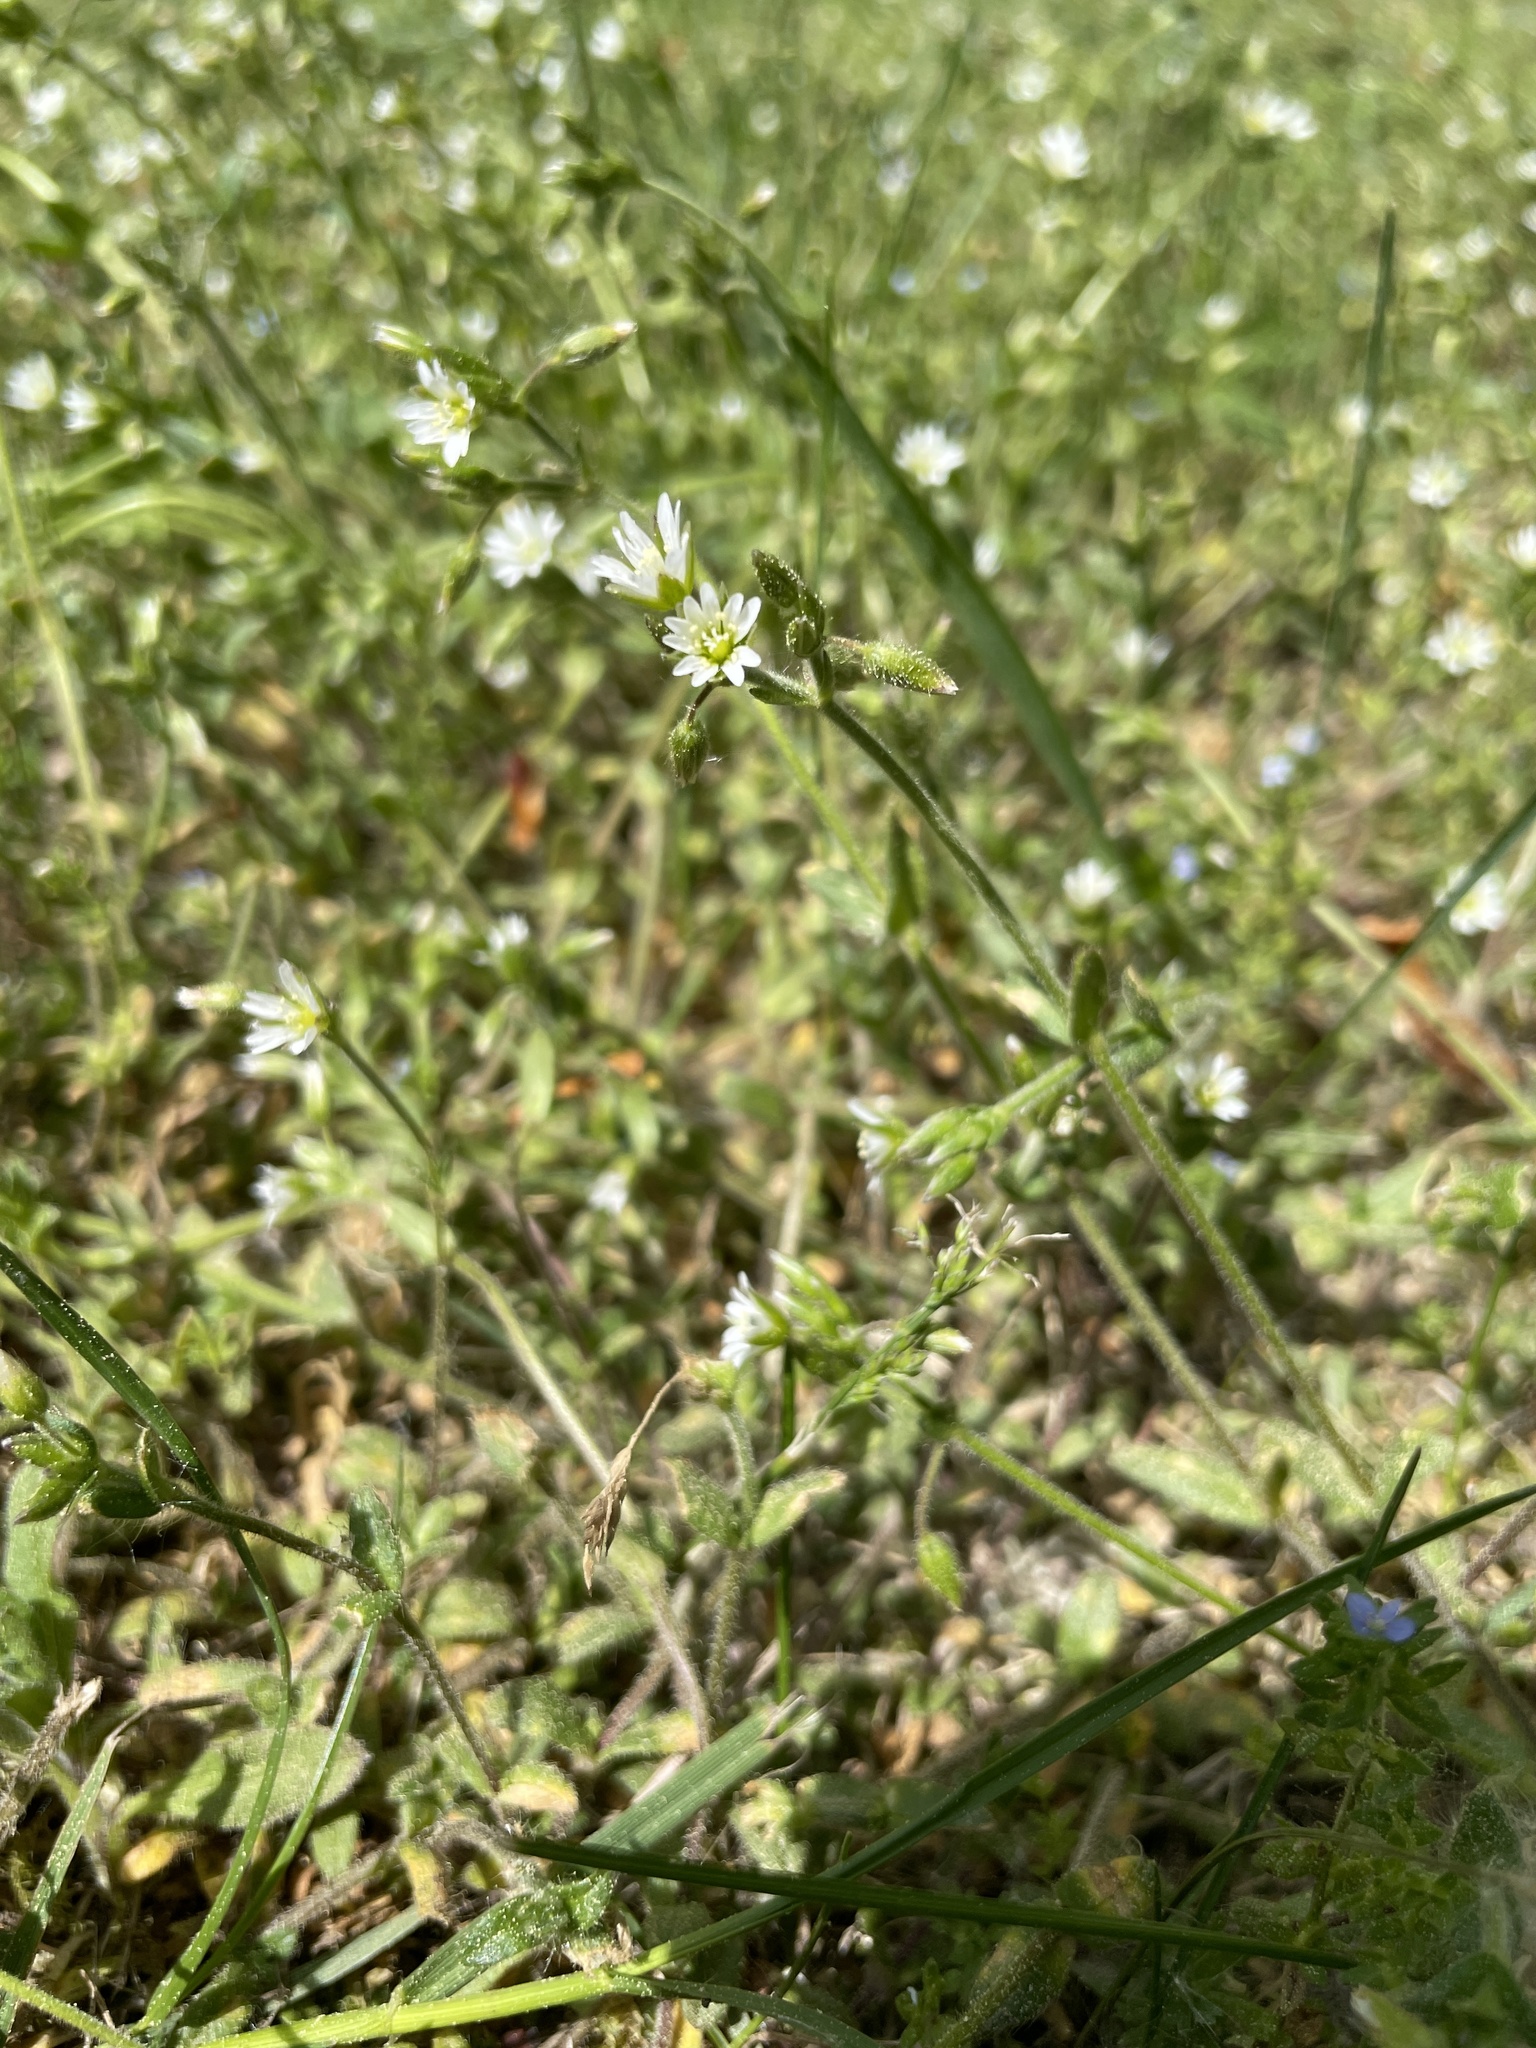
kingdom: Plantae
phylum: Tracheophyta
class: Magnoliopsida
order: Caryophyllales
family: Caryophyllaceae
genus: Cerastium
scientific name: Cerastium holosteoides
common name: Big chickweed
